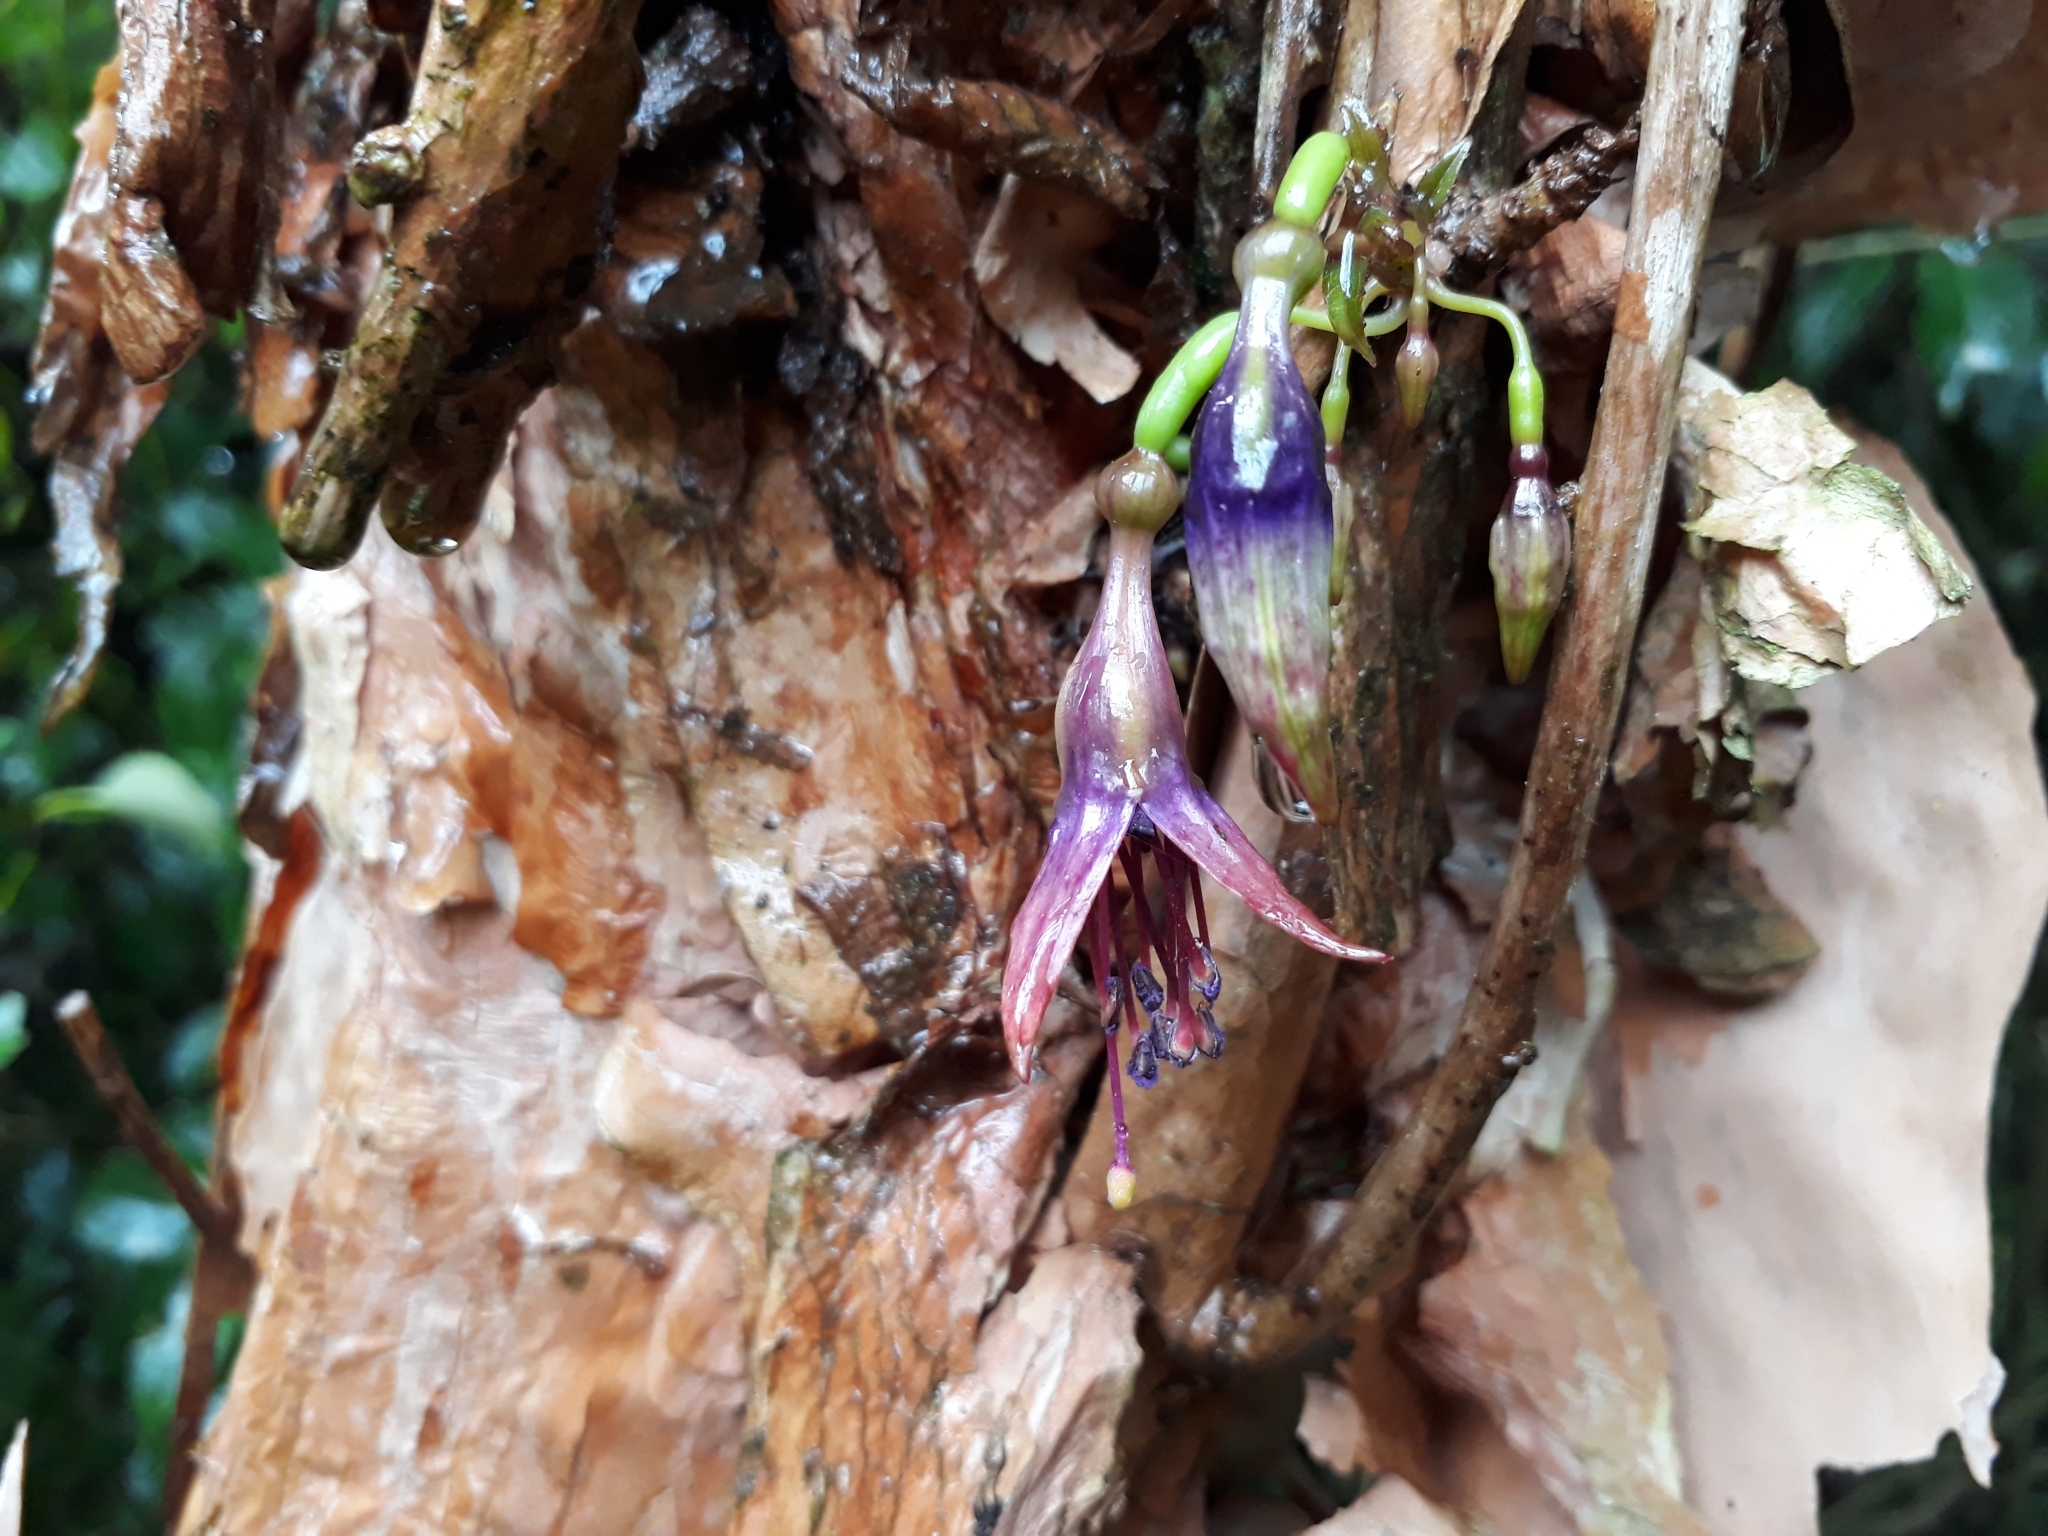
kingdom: Plantae
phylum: Tracheophyta
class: Magnoliopsida
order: Myrtales
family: Onagraceae
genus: Fuchsia
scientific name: Fuchsia excorticata
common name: Tree fuchsia
